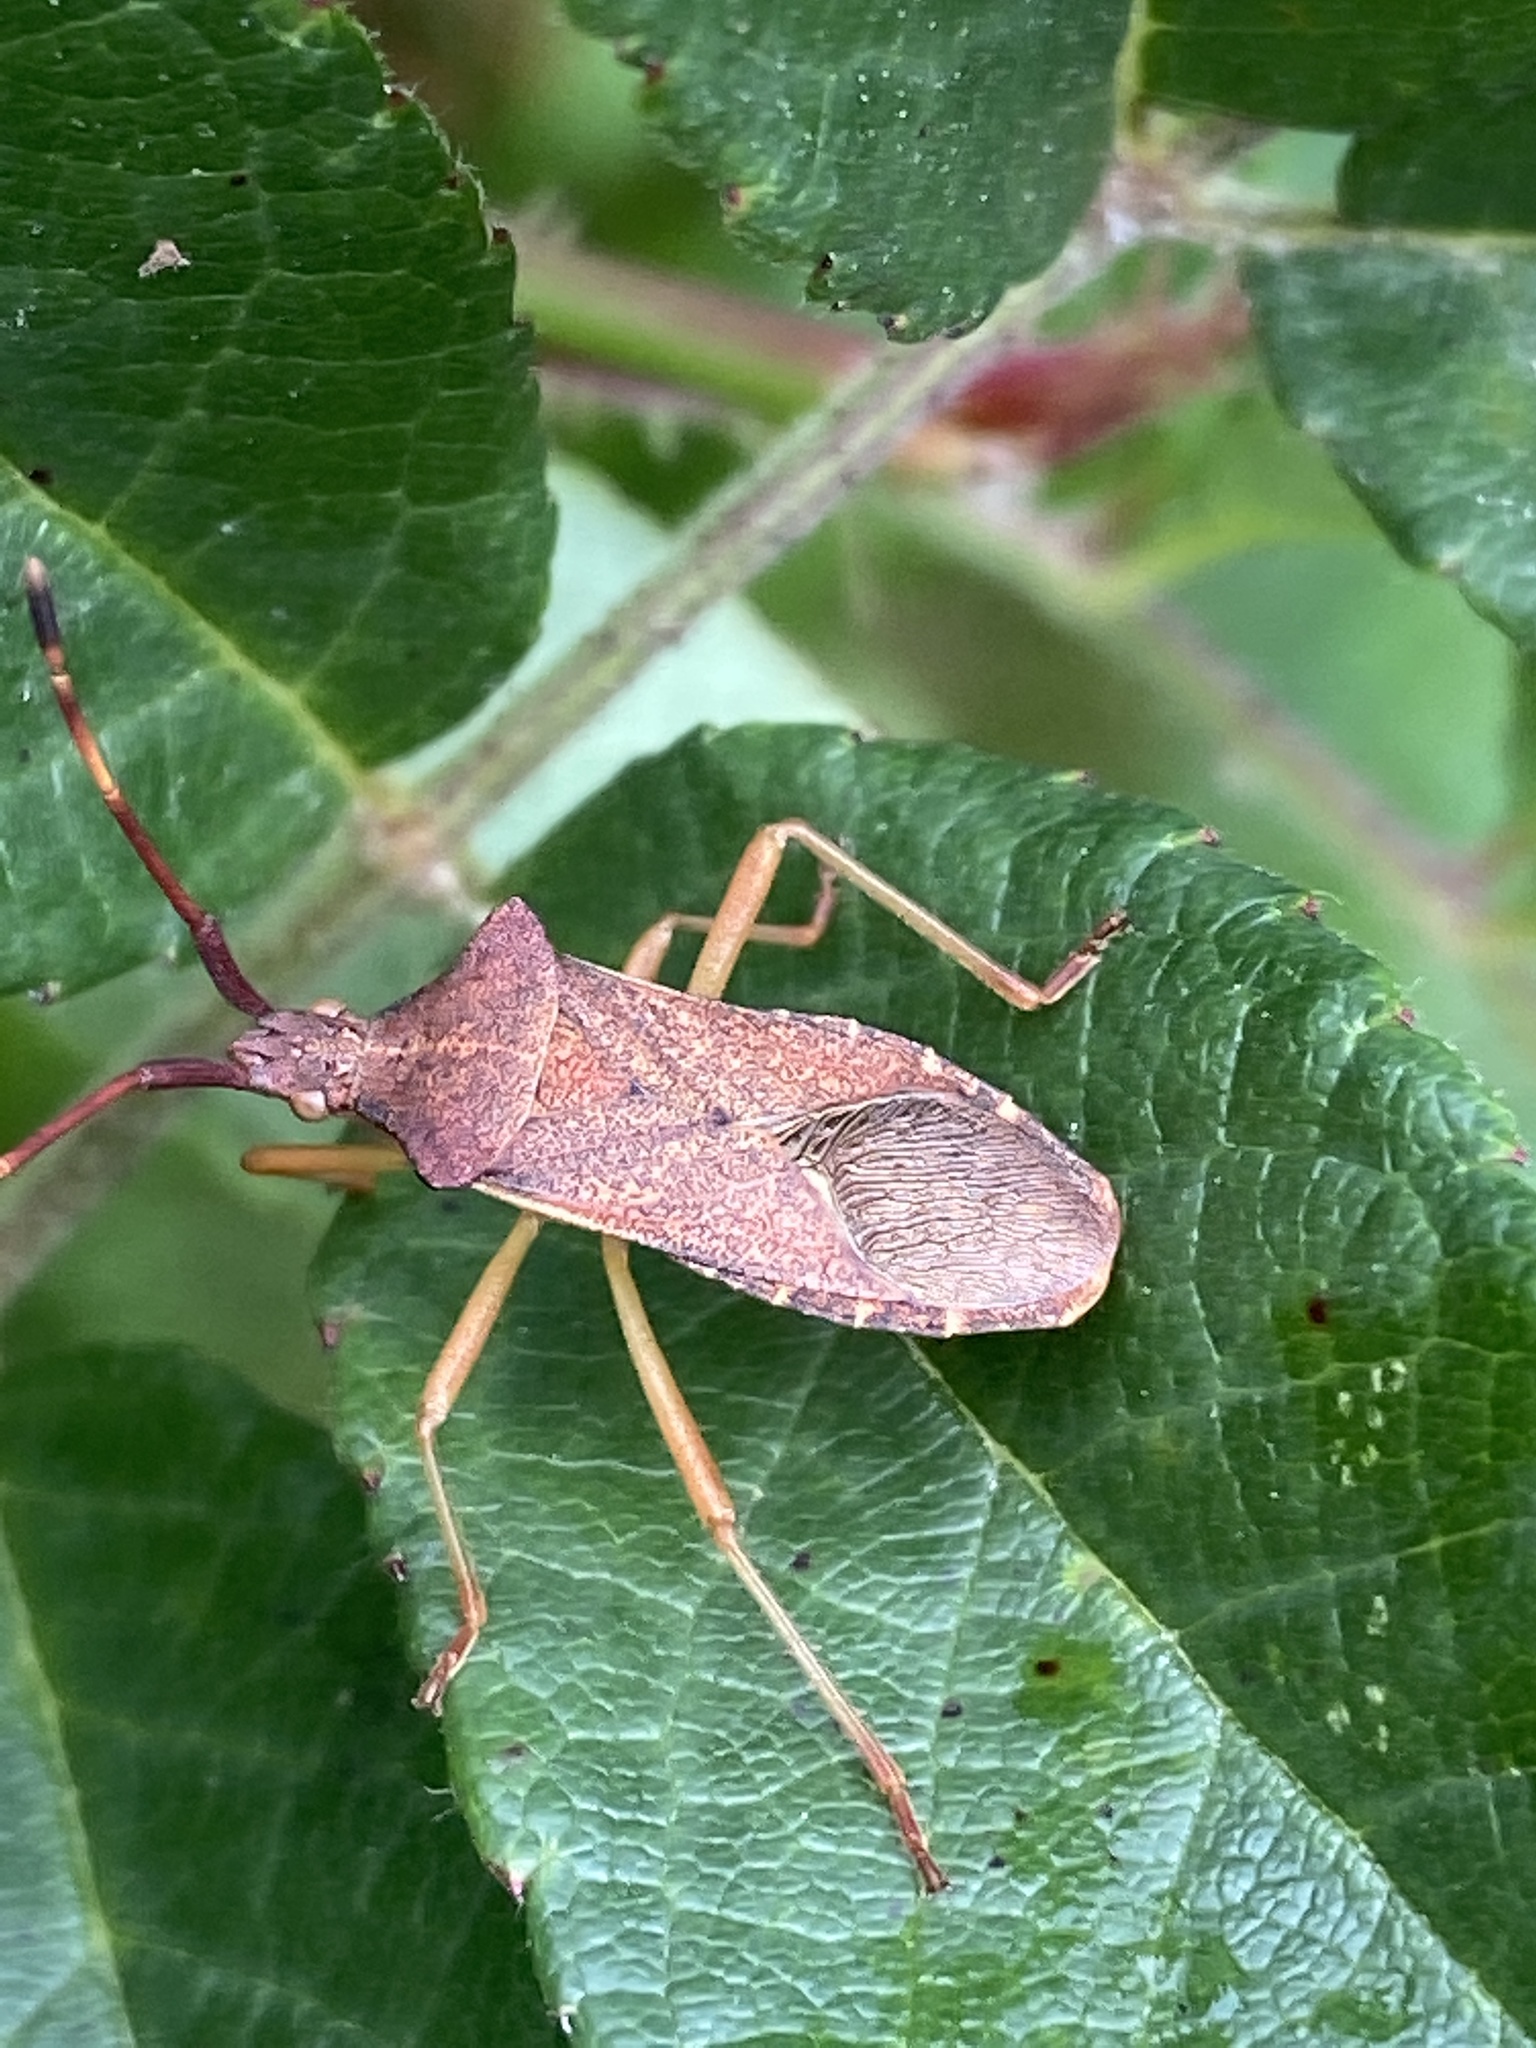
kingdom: Animalia
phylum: Arthropoda
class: Insecta
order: Hemiptera
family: Coreidae
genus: Gonocerus
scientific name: Gonocerus acuteangulatus
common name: Box bug
